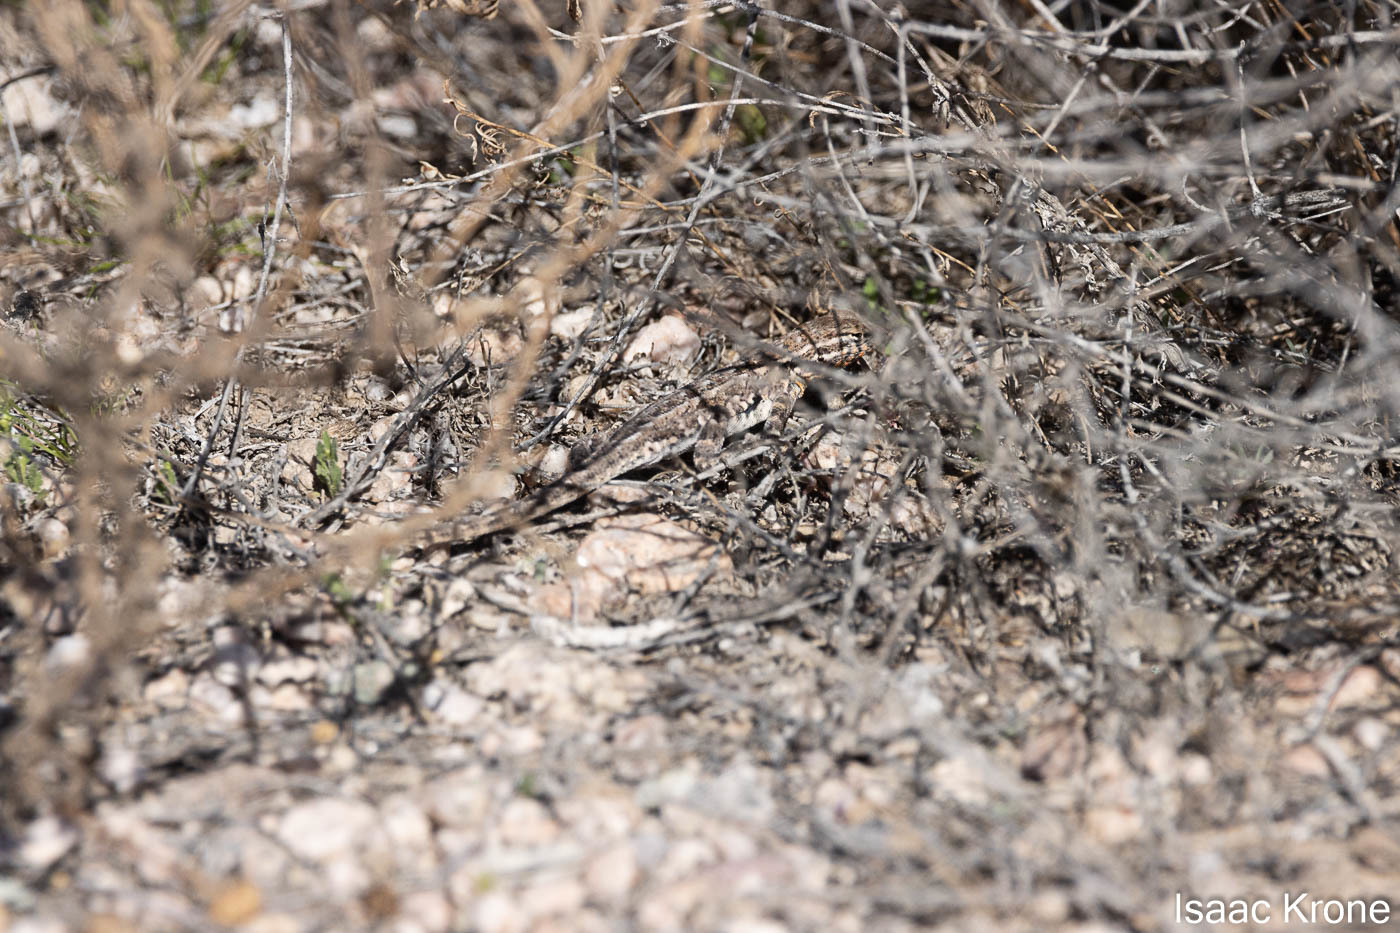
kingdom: Animalia
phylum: Chordata
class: Squamata
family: Phrynosomatidae
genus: Uta
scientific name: Uta stansburiana
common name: Side-blotched lizard
